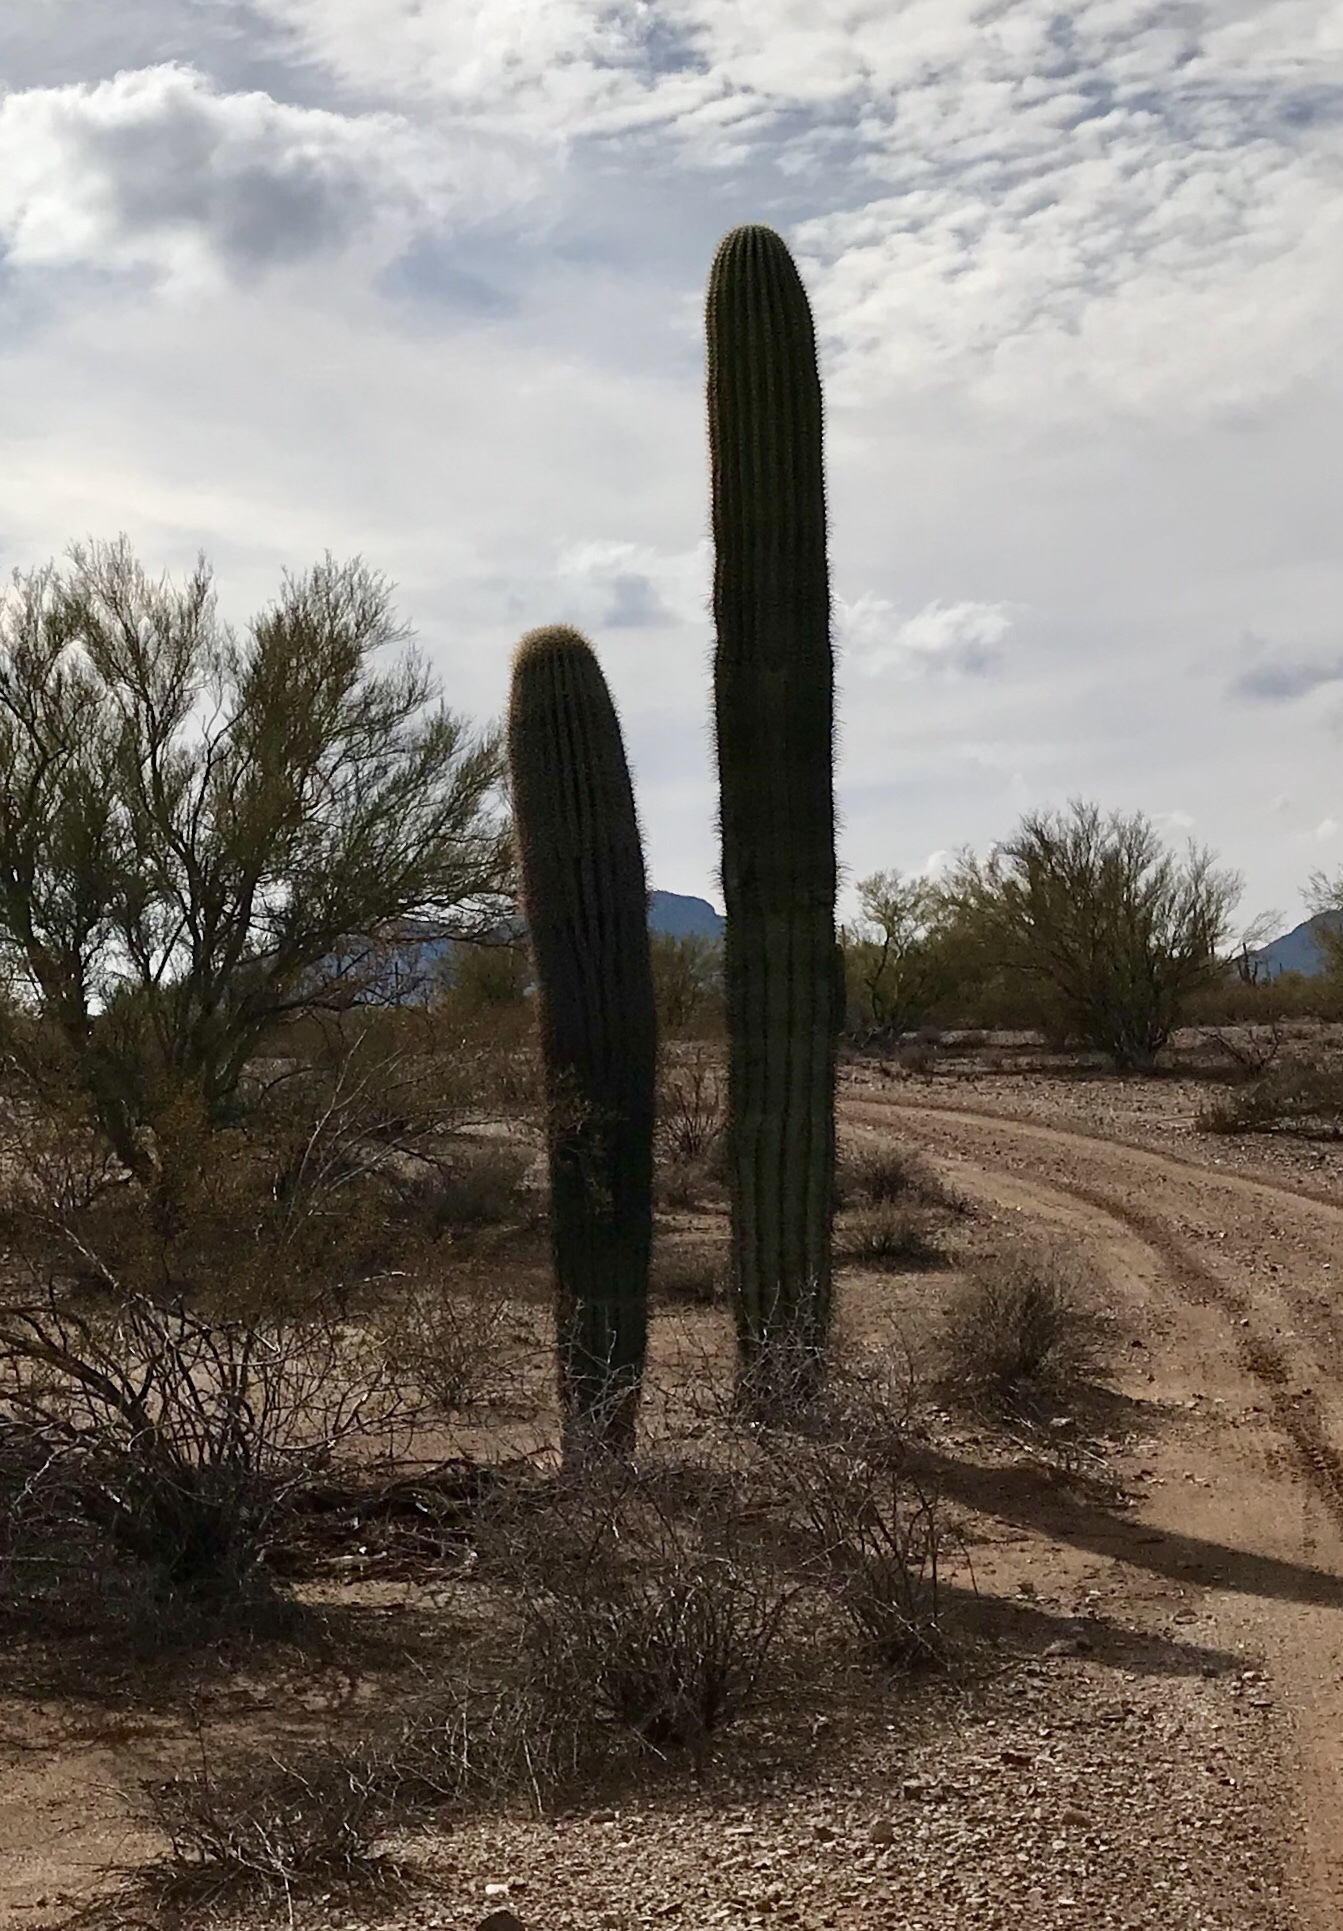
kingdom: Plantae
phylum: Tracheophyta
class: Magnoliopsida
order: Caryophyllales
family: Cactaceae
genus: Carnegiea
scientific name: Carnegiea gigantea
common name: Saguaro
